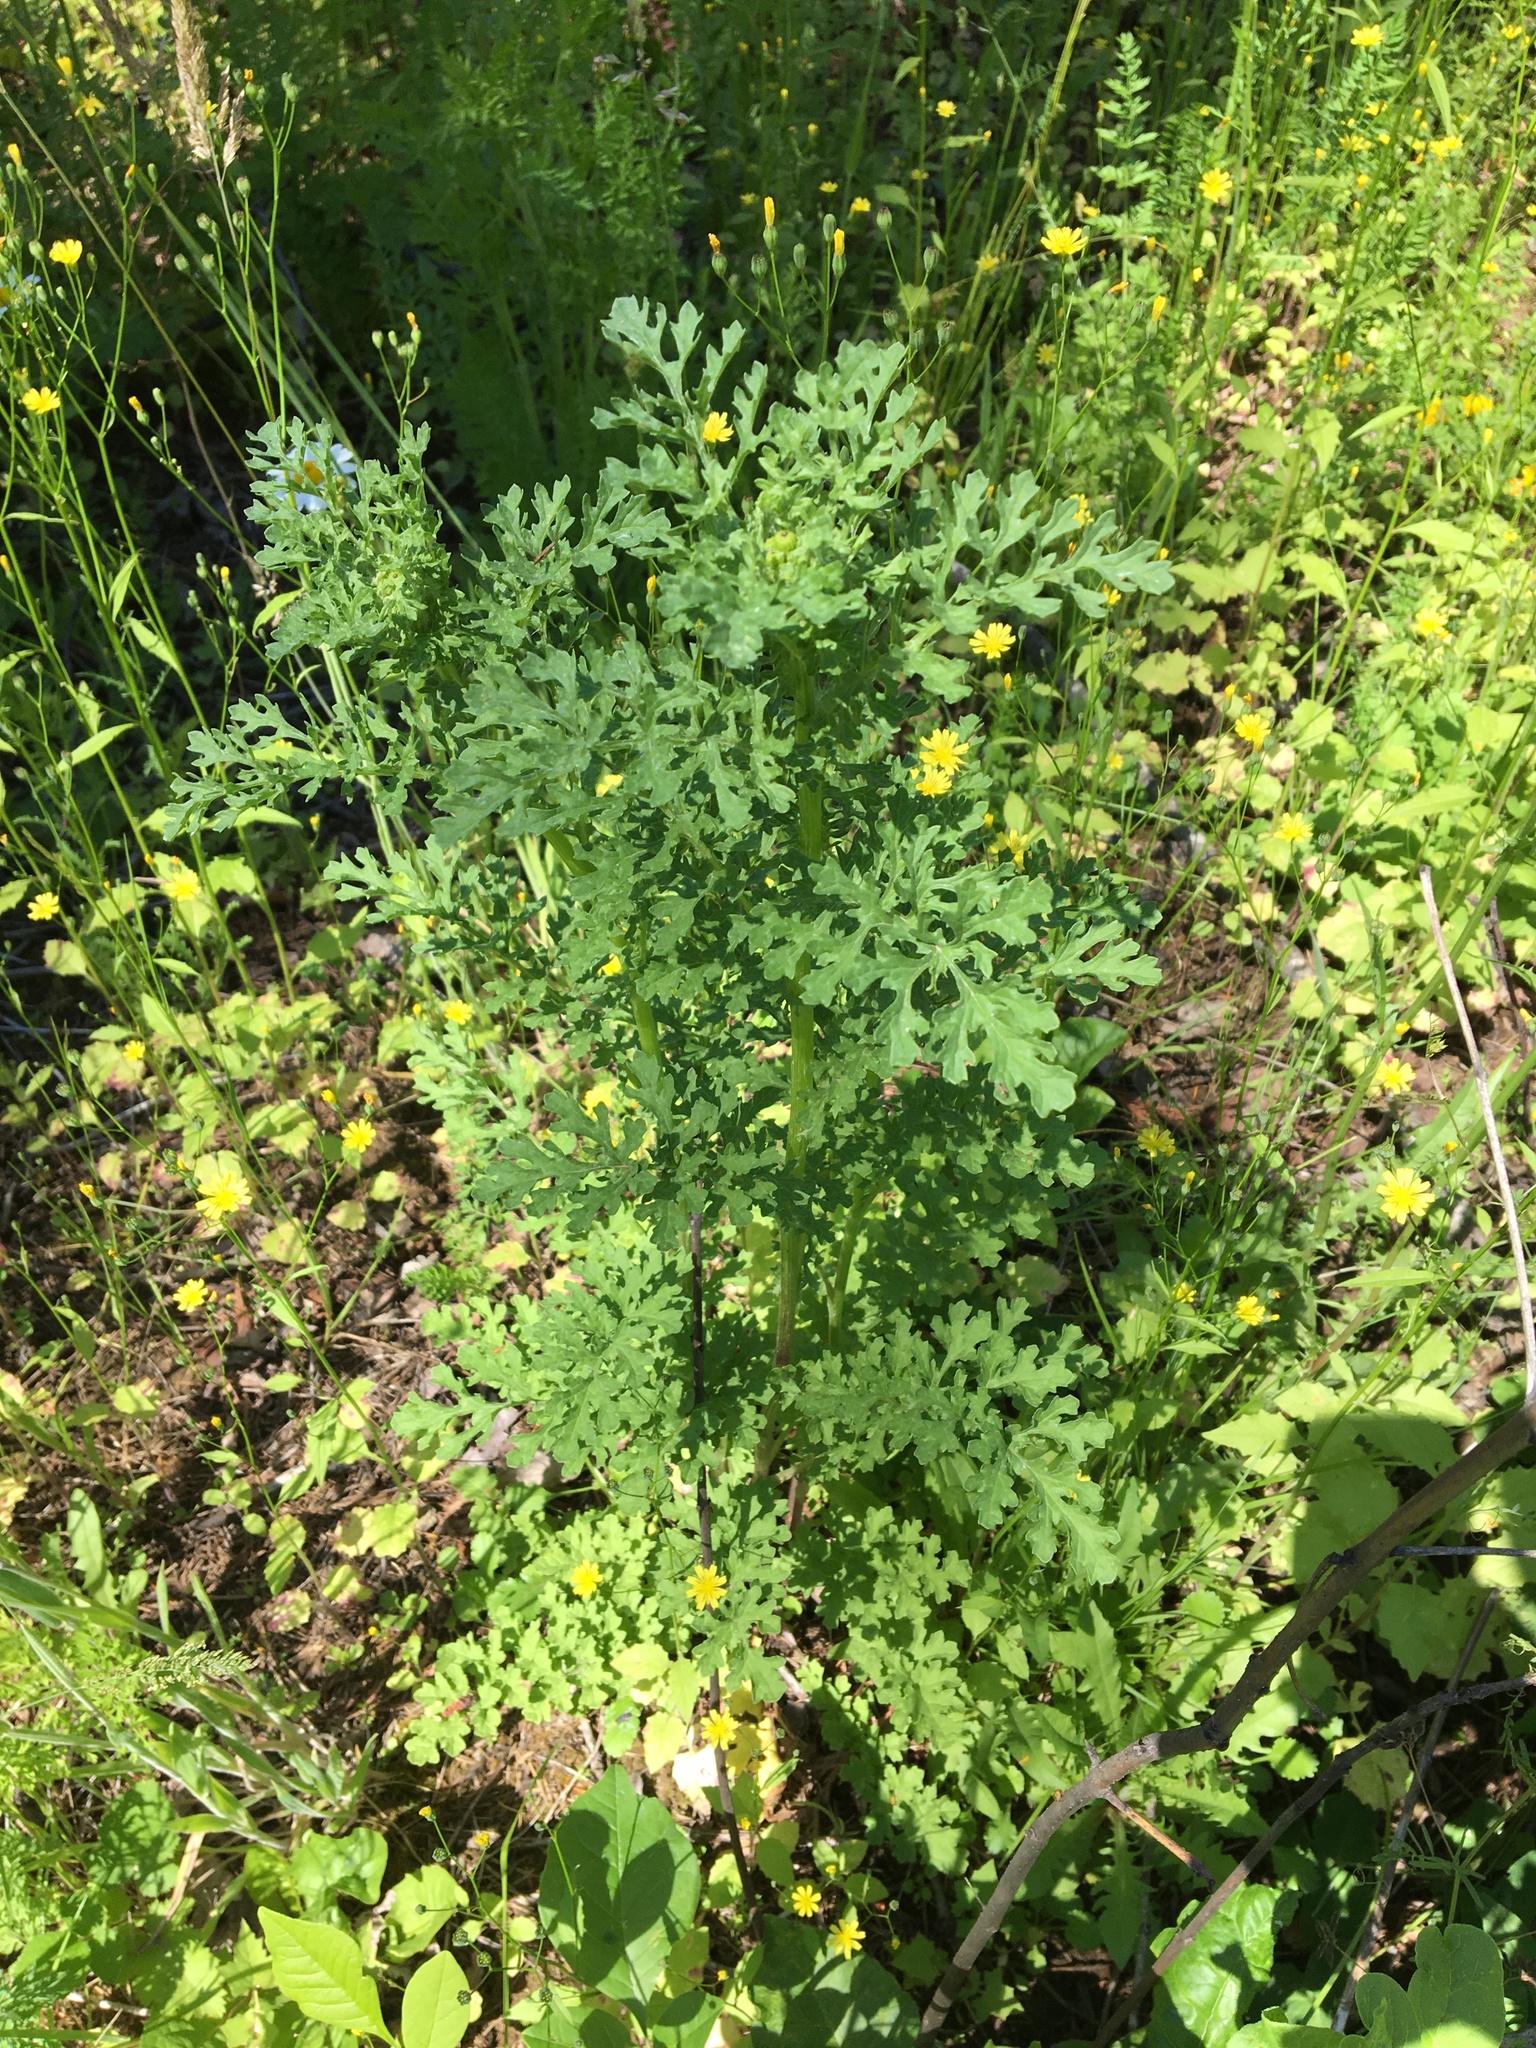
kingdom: Plantae
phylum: Tracheophyta
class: Magnoliopsida
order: Asterales
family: Asteraceae
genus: Jacobaea
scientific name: Jacobaea vulgaris
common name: Stinking willie
